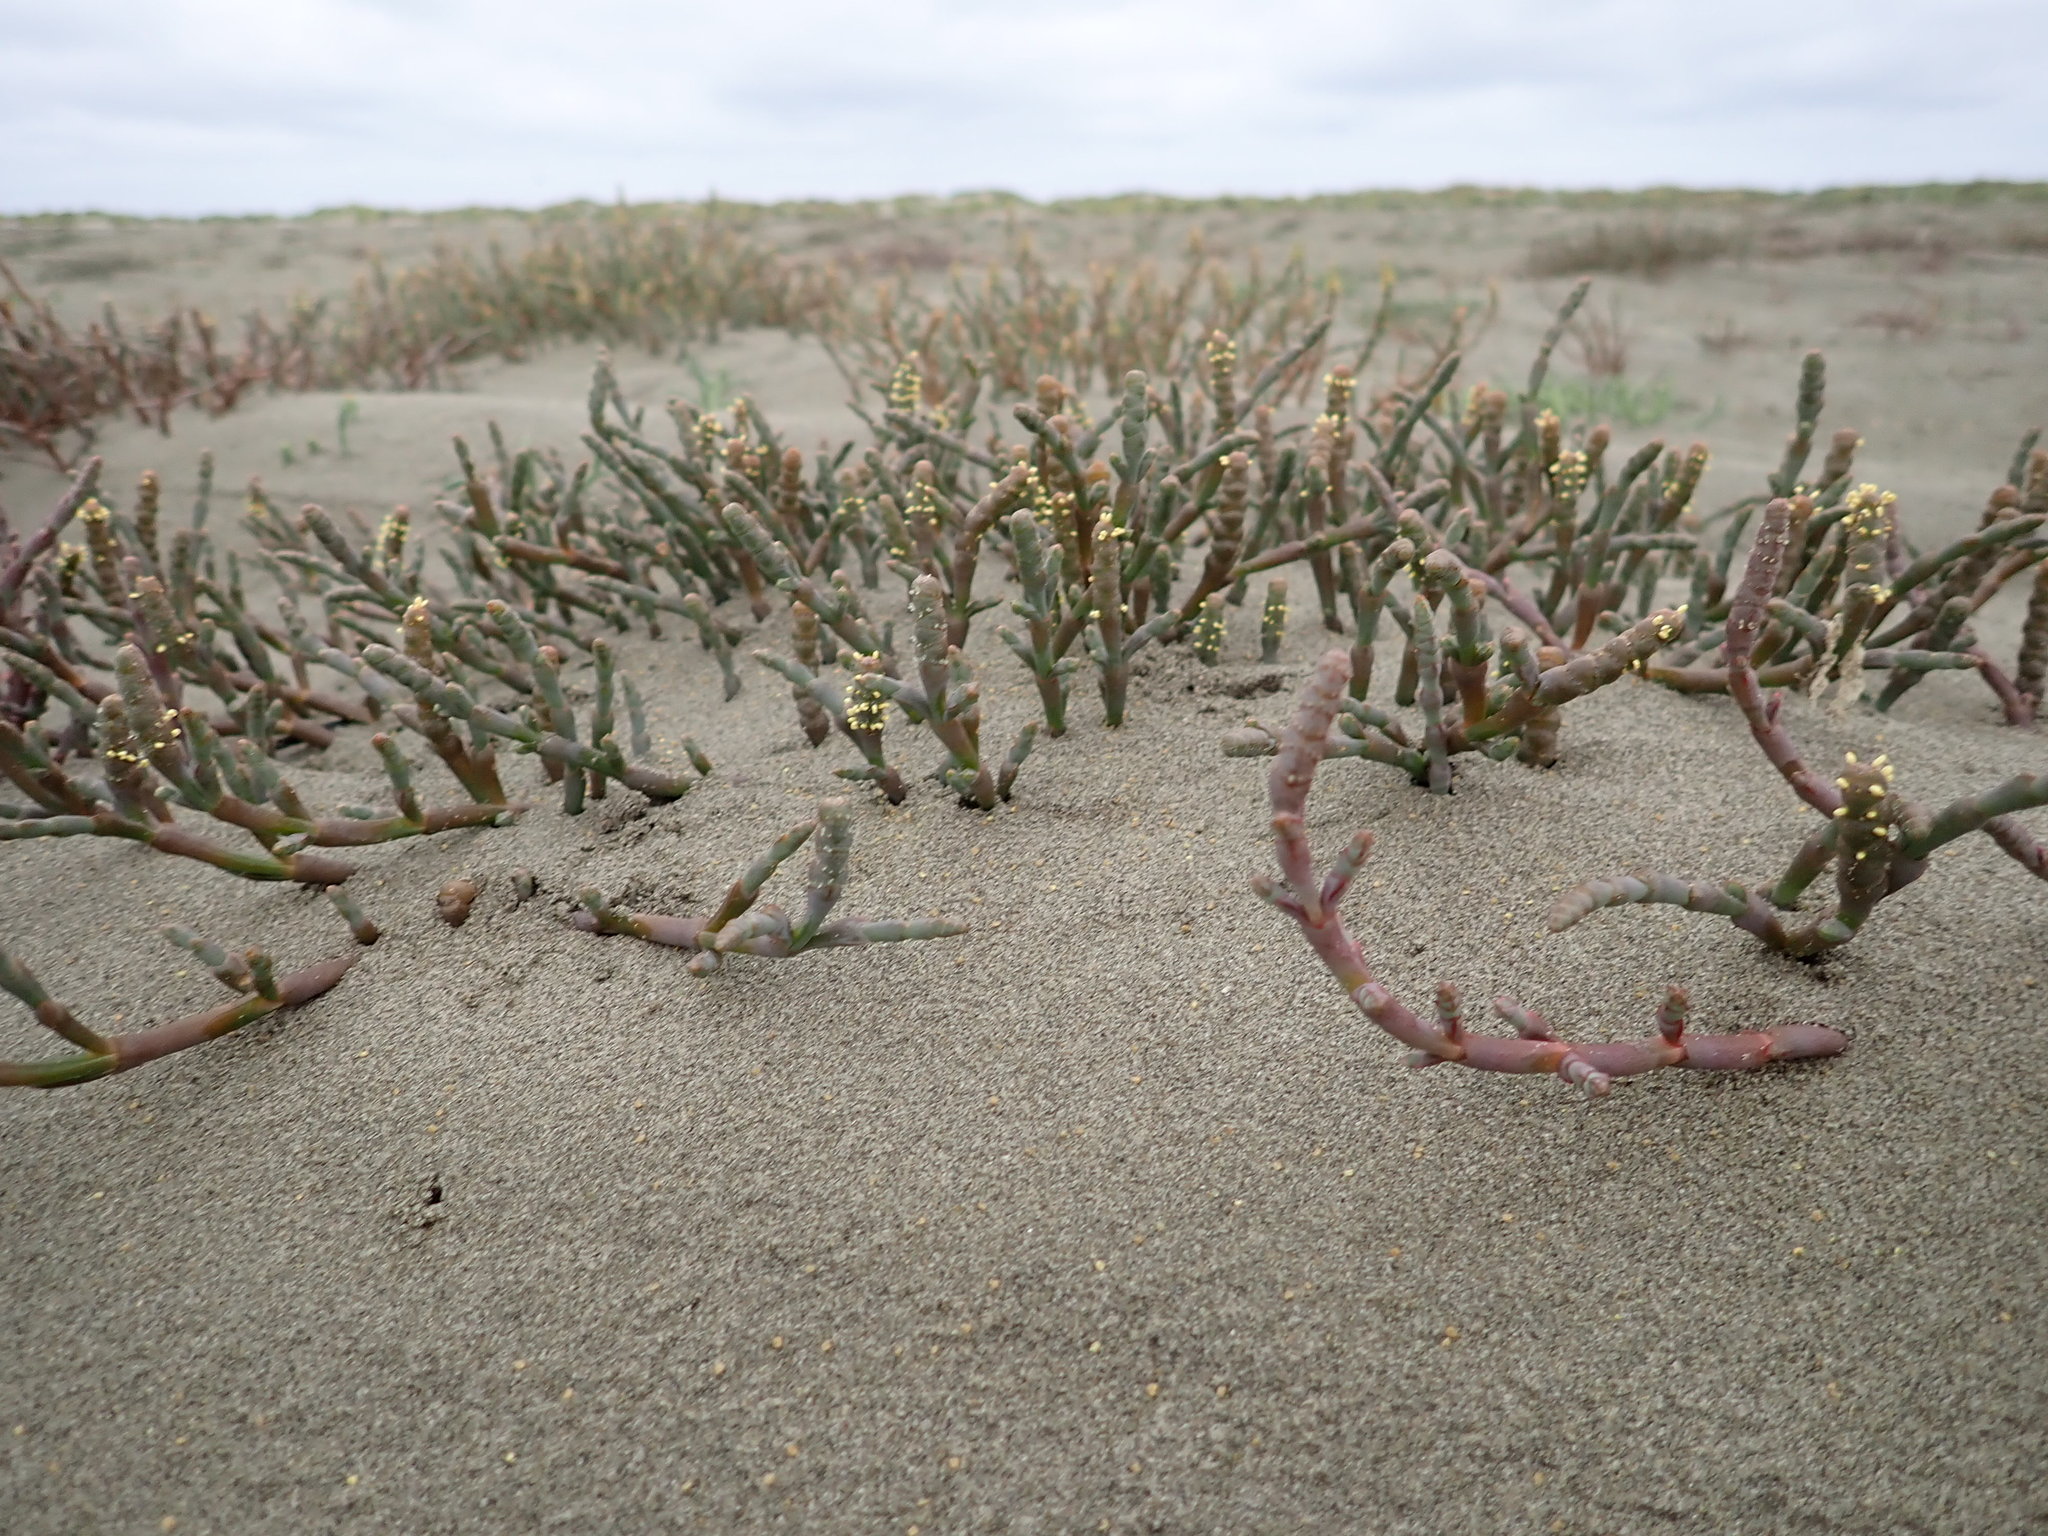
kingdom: Plantae
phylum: Tracheophyta
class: Magnoliopsida
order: Caryophyllales
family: Amaranthaceae
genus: Salicornia
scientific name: Salicornia quinqueflora
